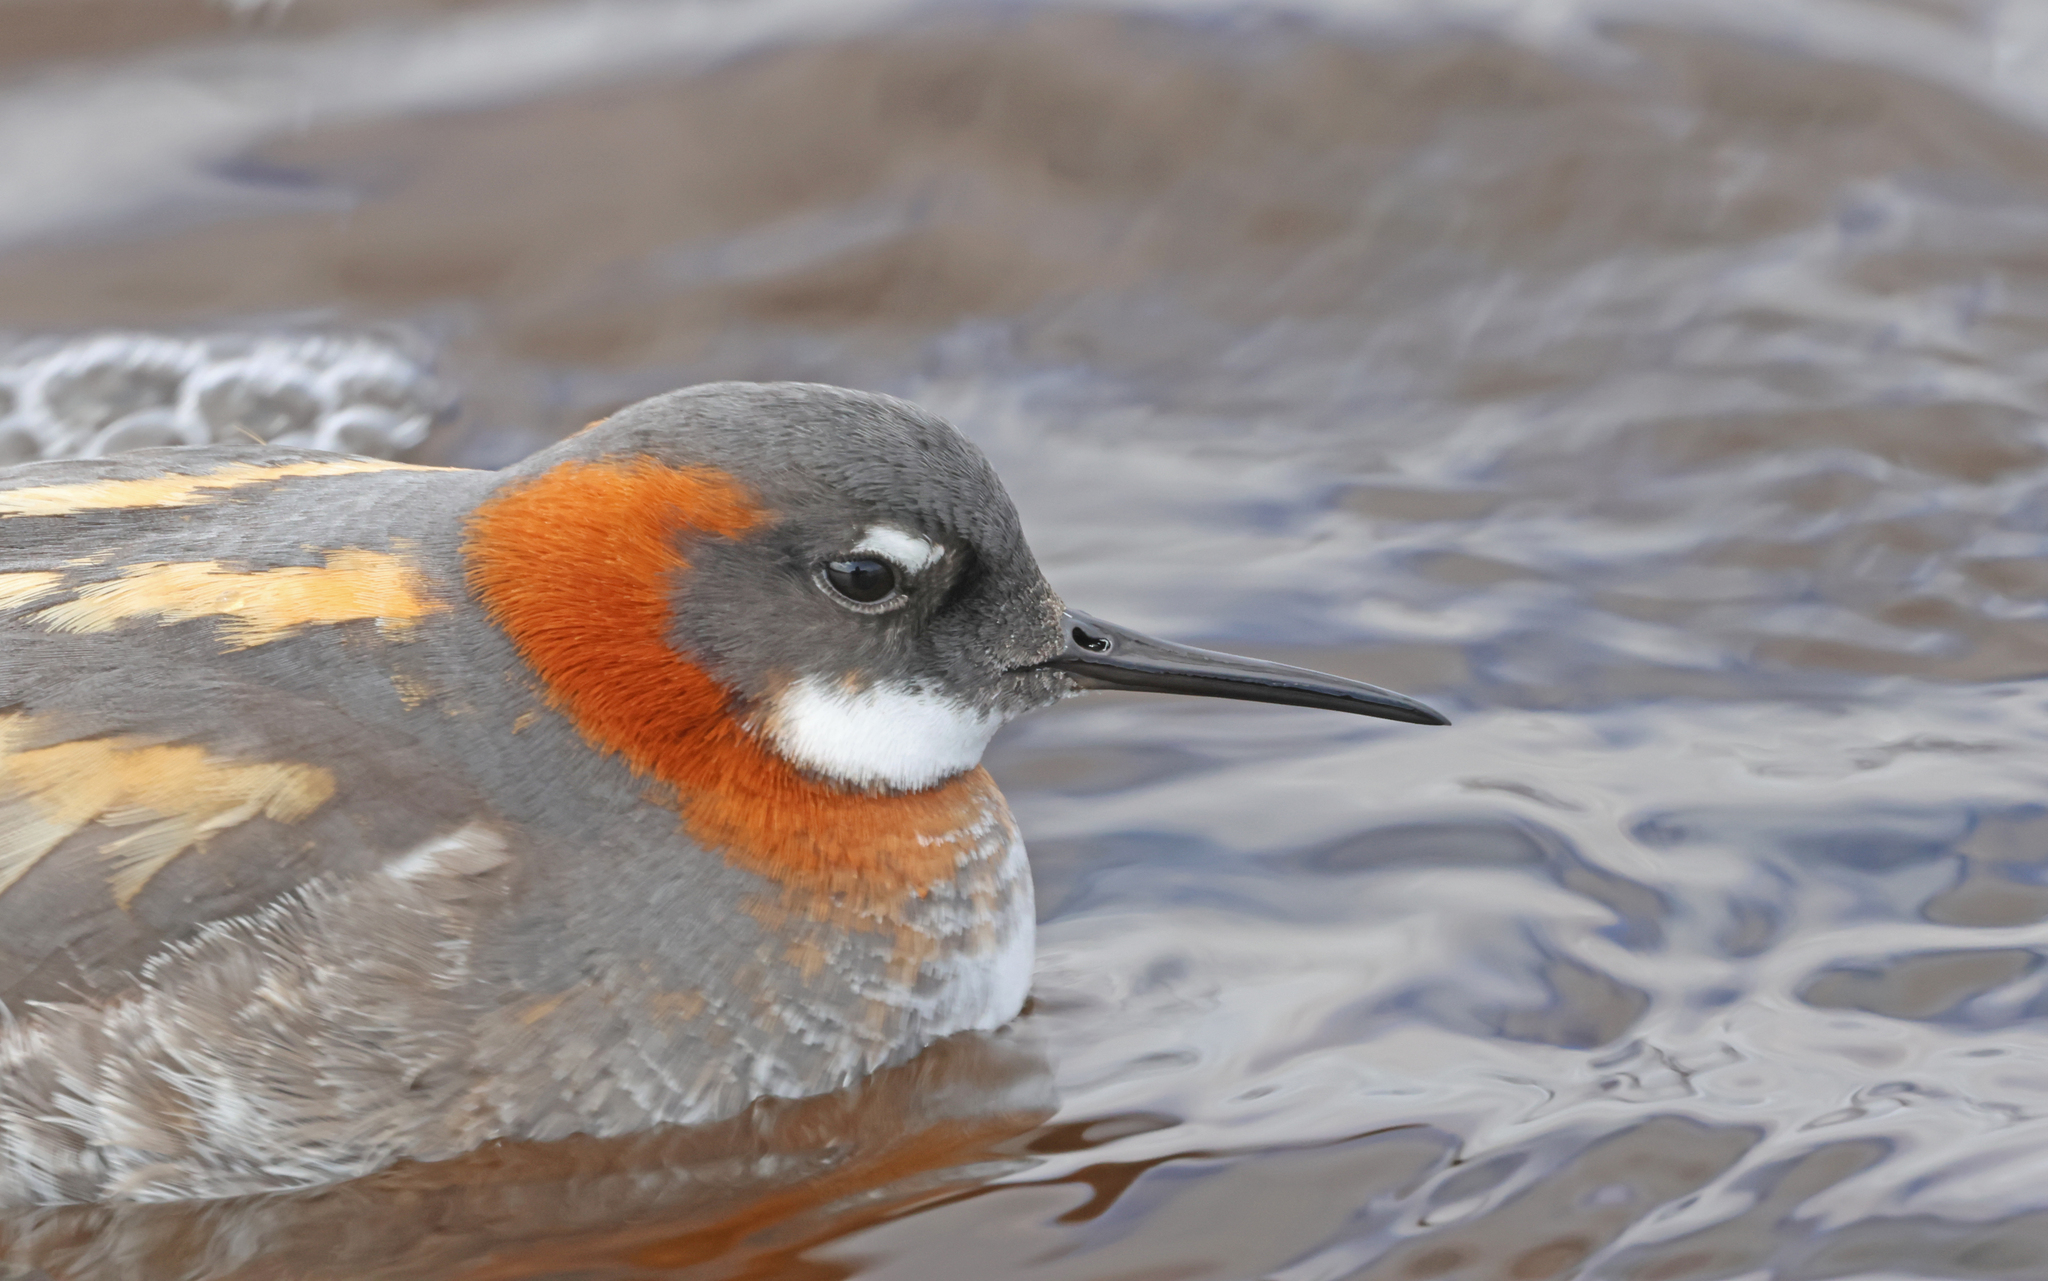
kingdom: Animalia
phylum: Chordata
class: Aves
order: Charadriiformes
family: Scolopacidae
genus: Phalaropus
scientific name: Phalaropus lobatus
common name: Red-necked phalarope
